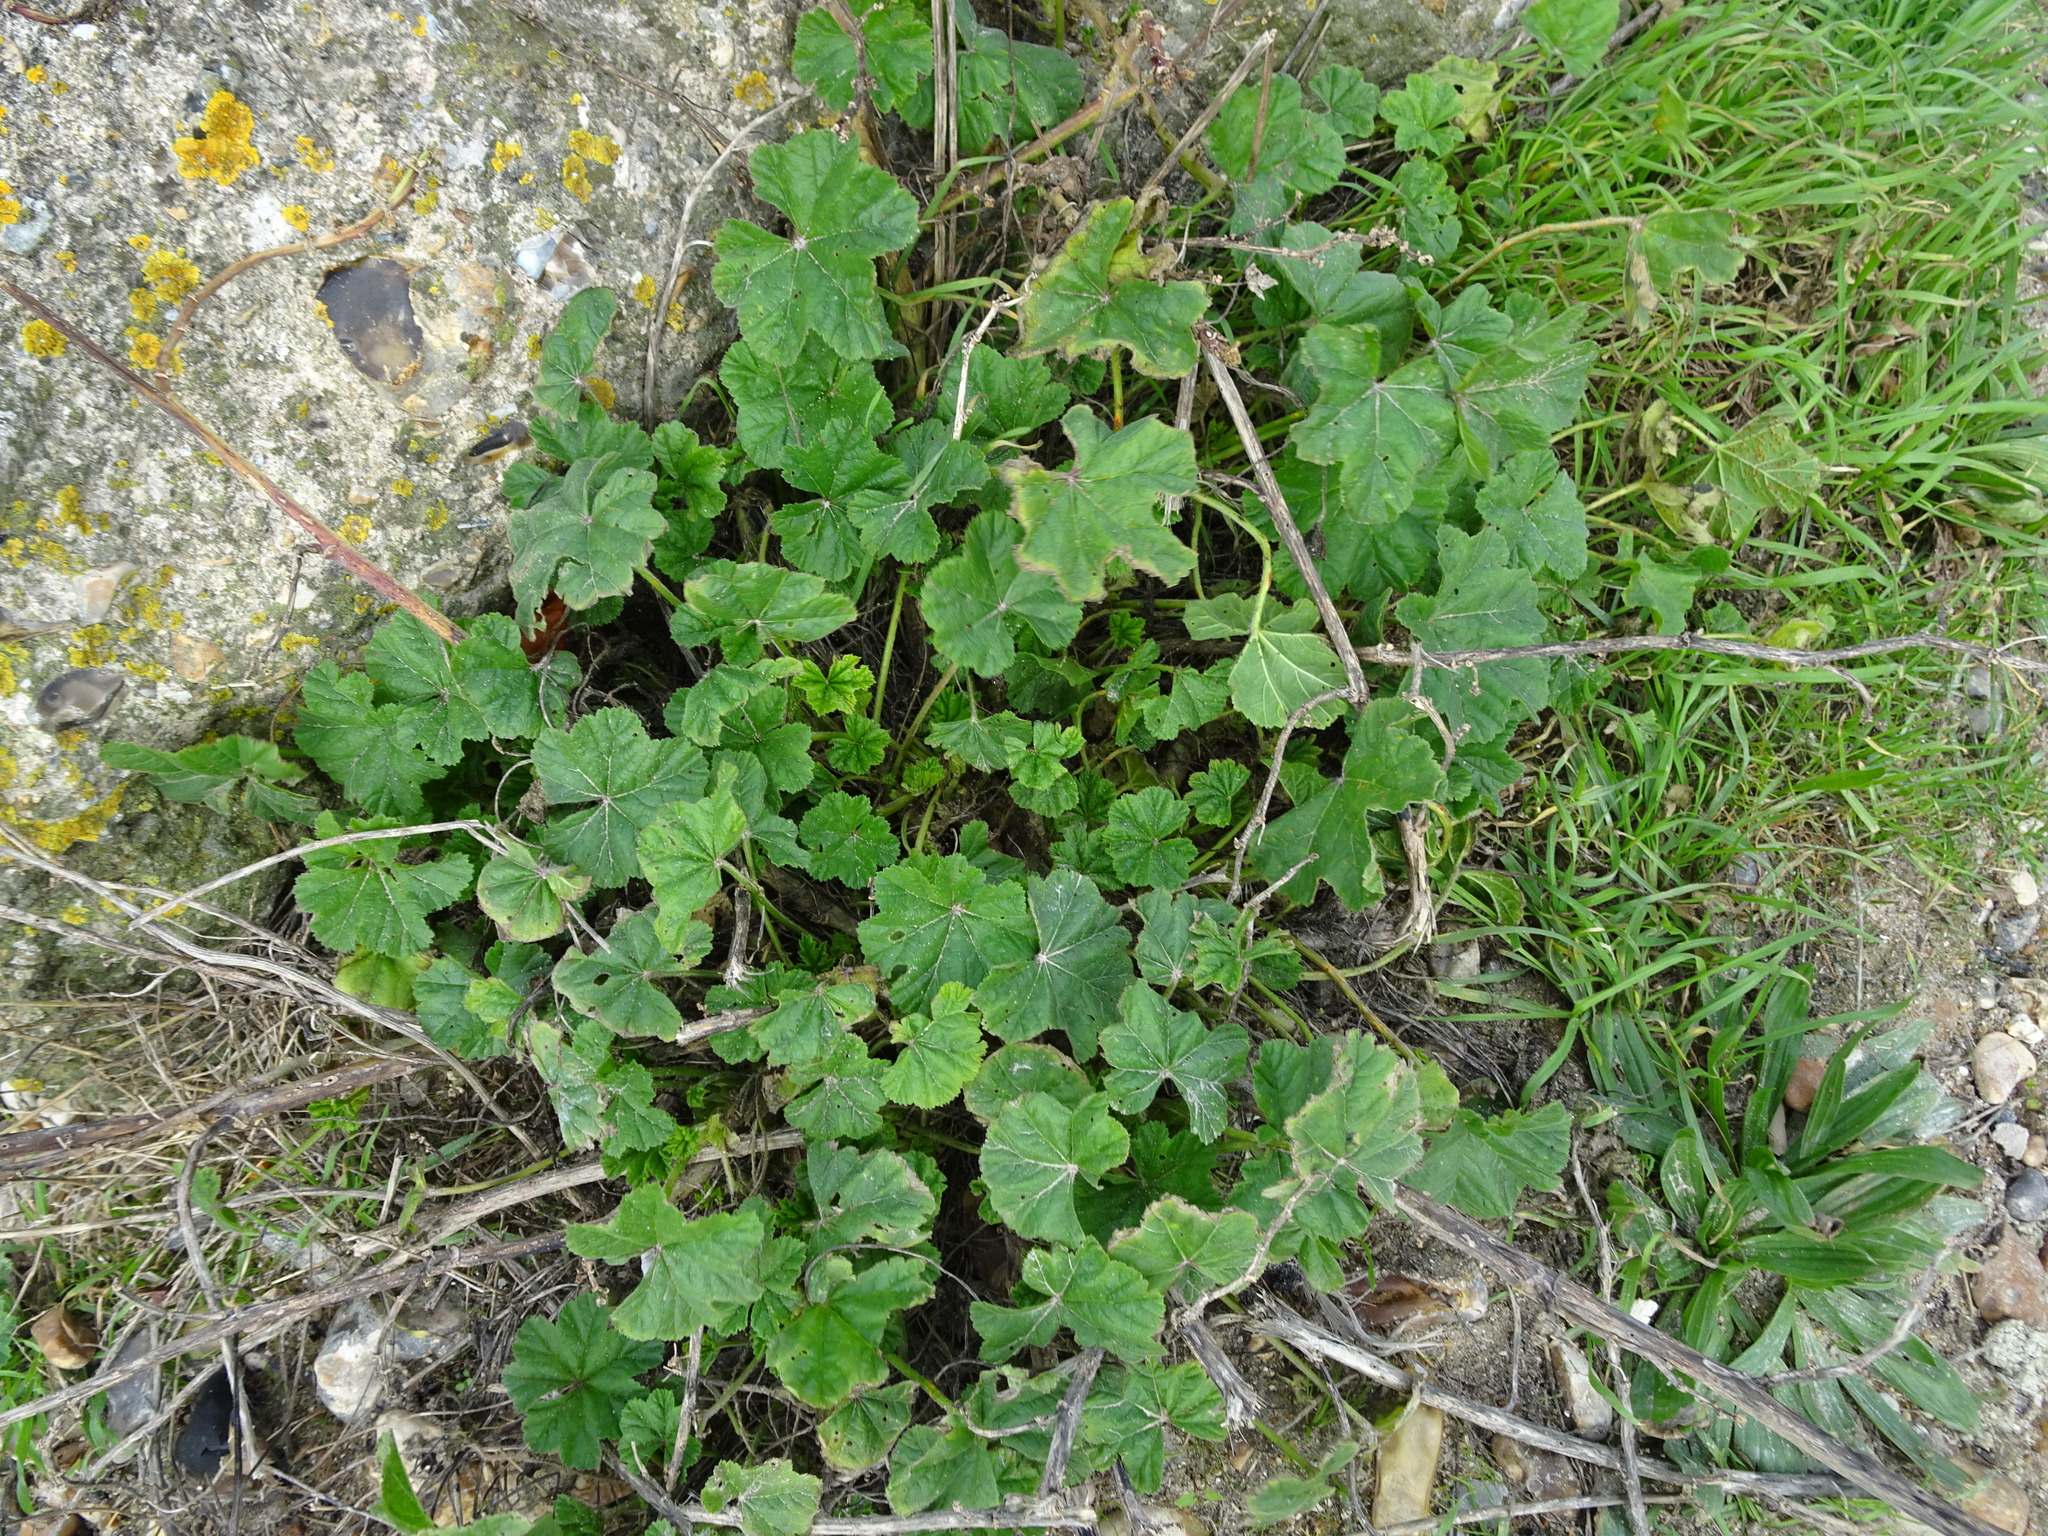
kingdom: Plantae
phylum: Tracheophyta
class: Magnoliopsida
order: Malvales
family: Malvaceae
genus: Malva
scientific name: Malva sylvestris
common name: Common mallow
